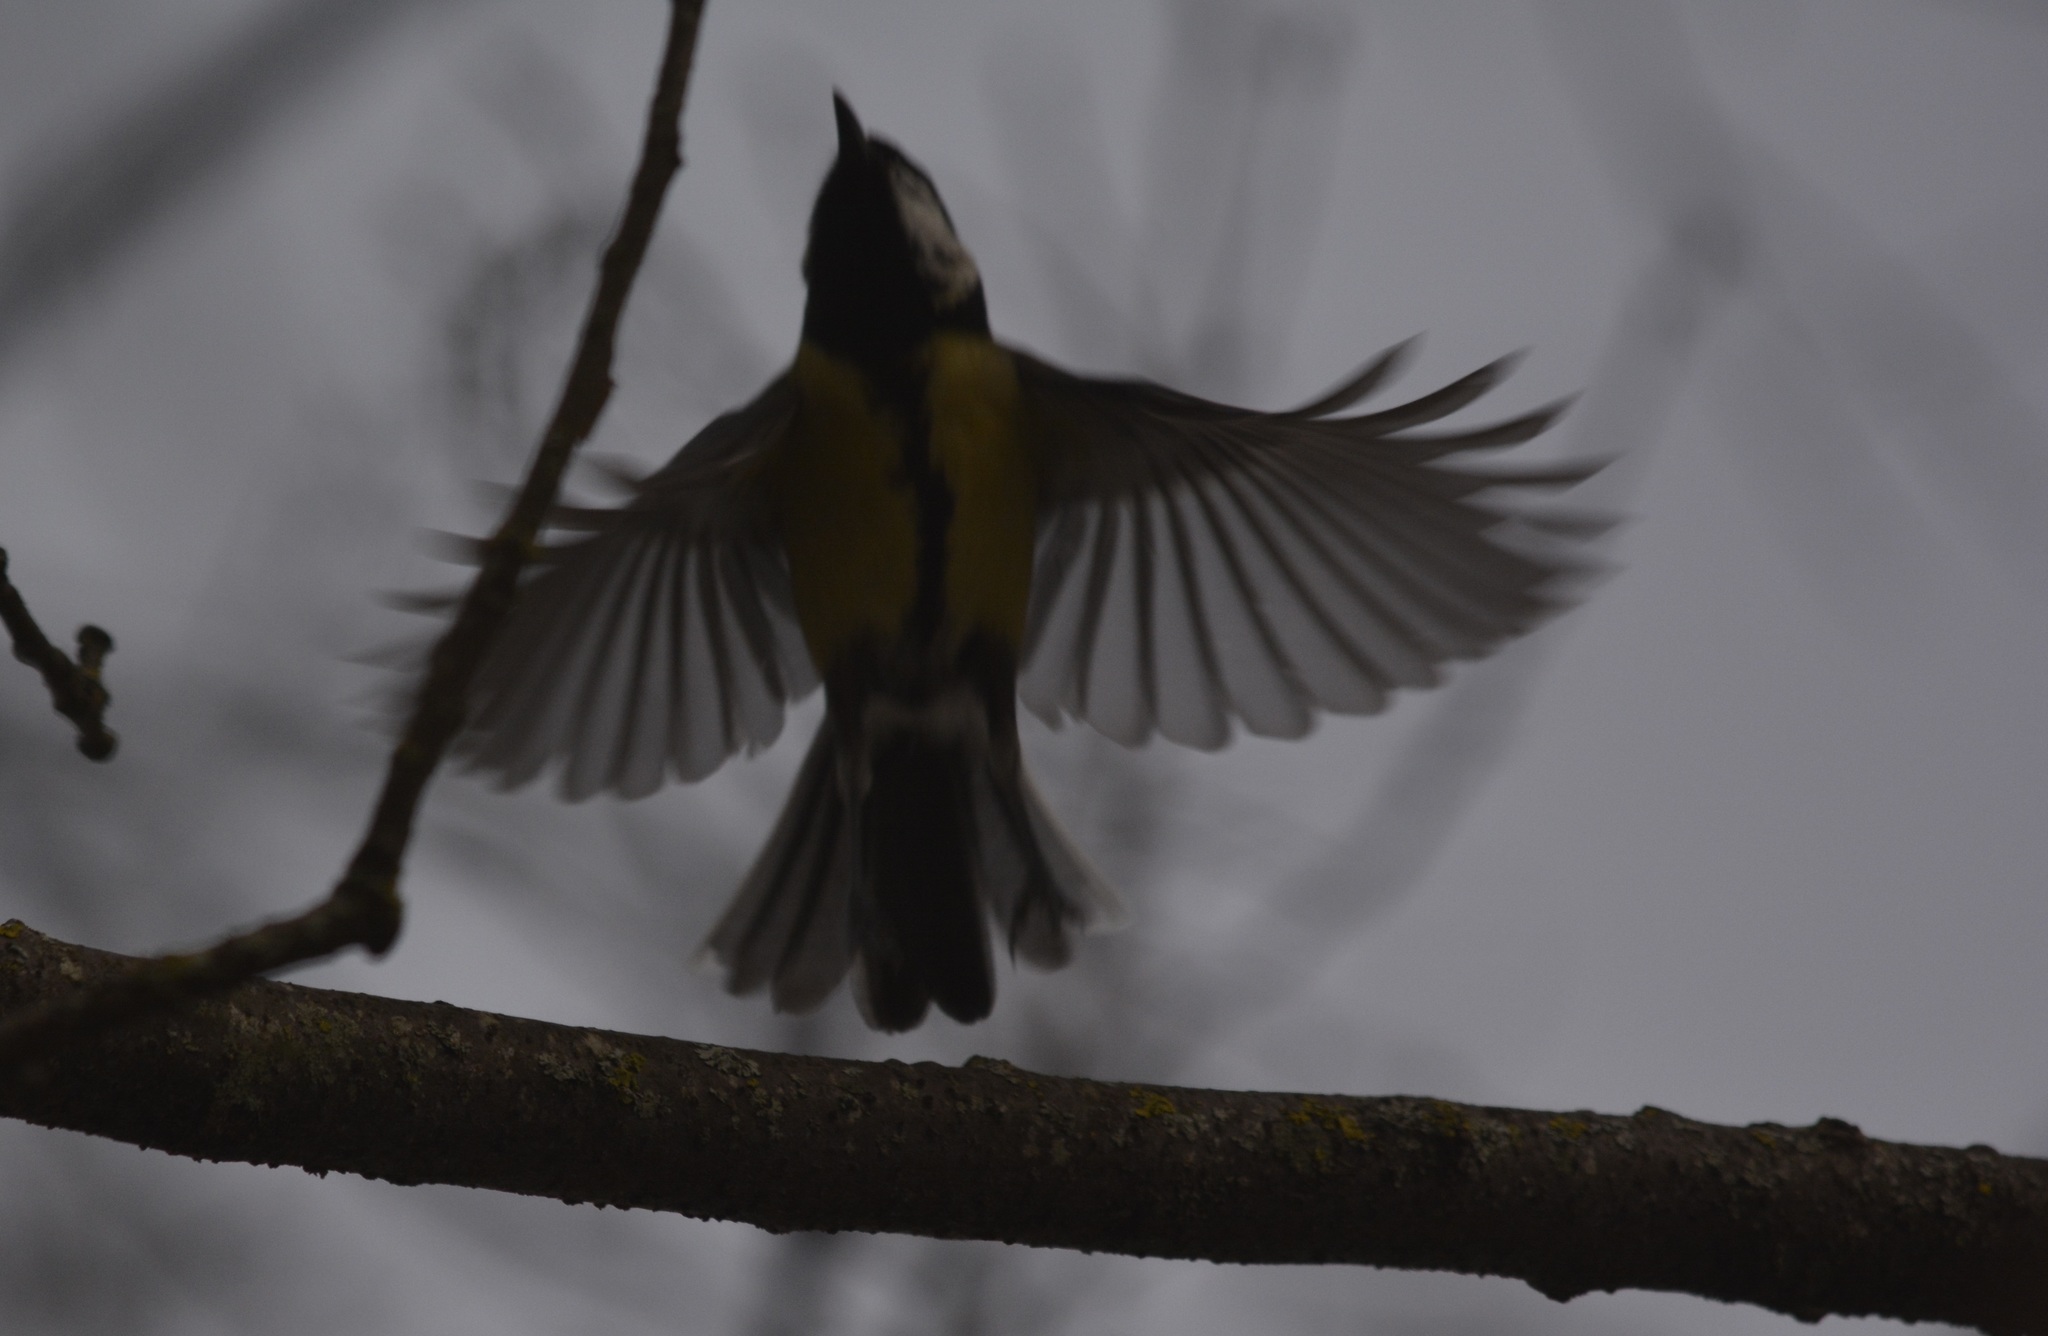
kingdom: Animalia
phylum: Chordata
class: Aves
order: Passeriformes
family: Paridae
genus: Parus
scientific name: Parus major
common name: Great tit
